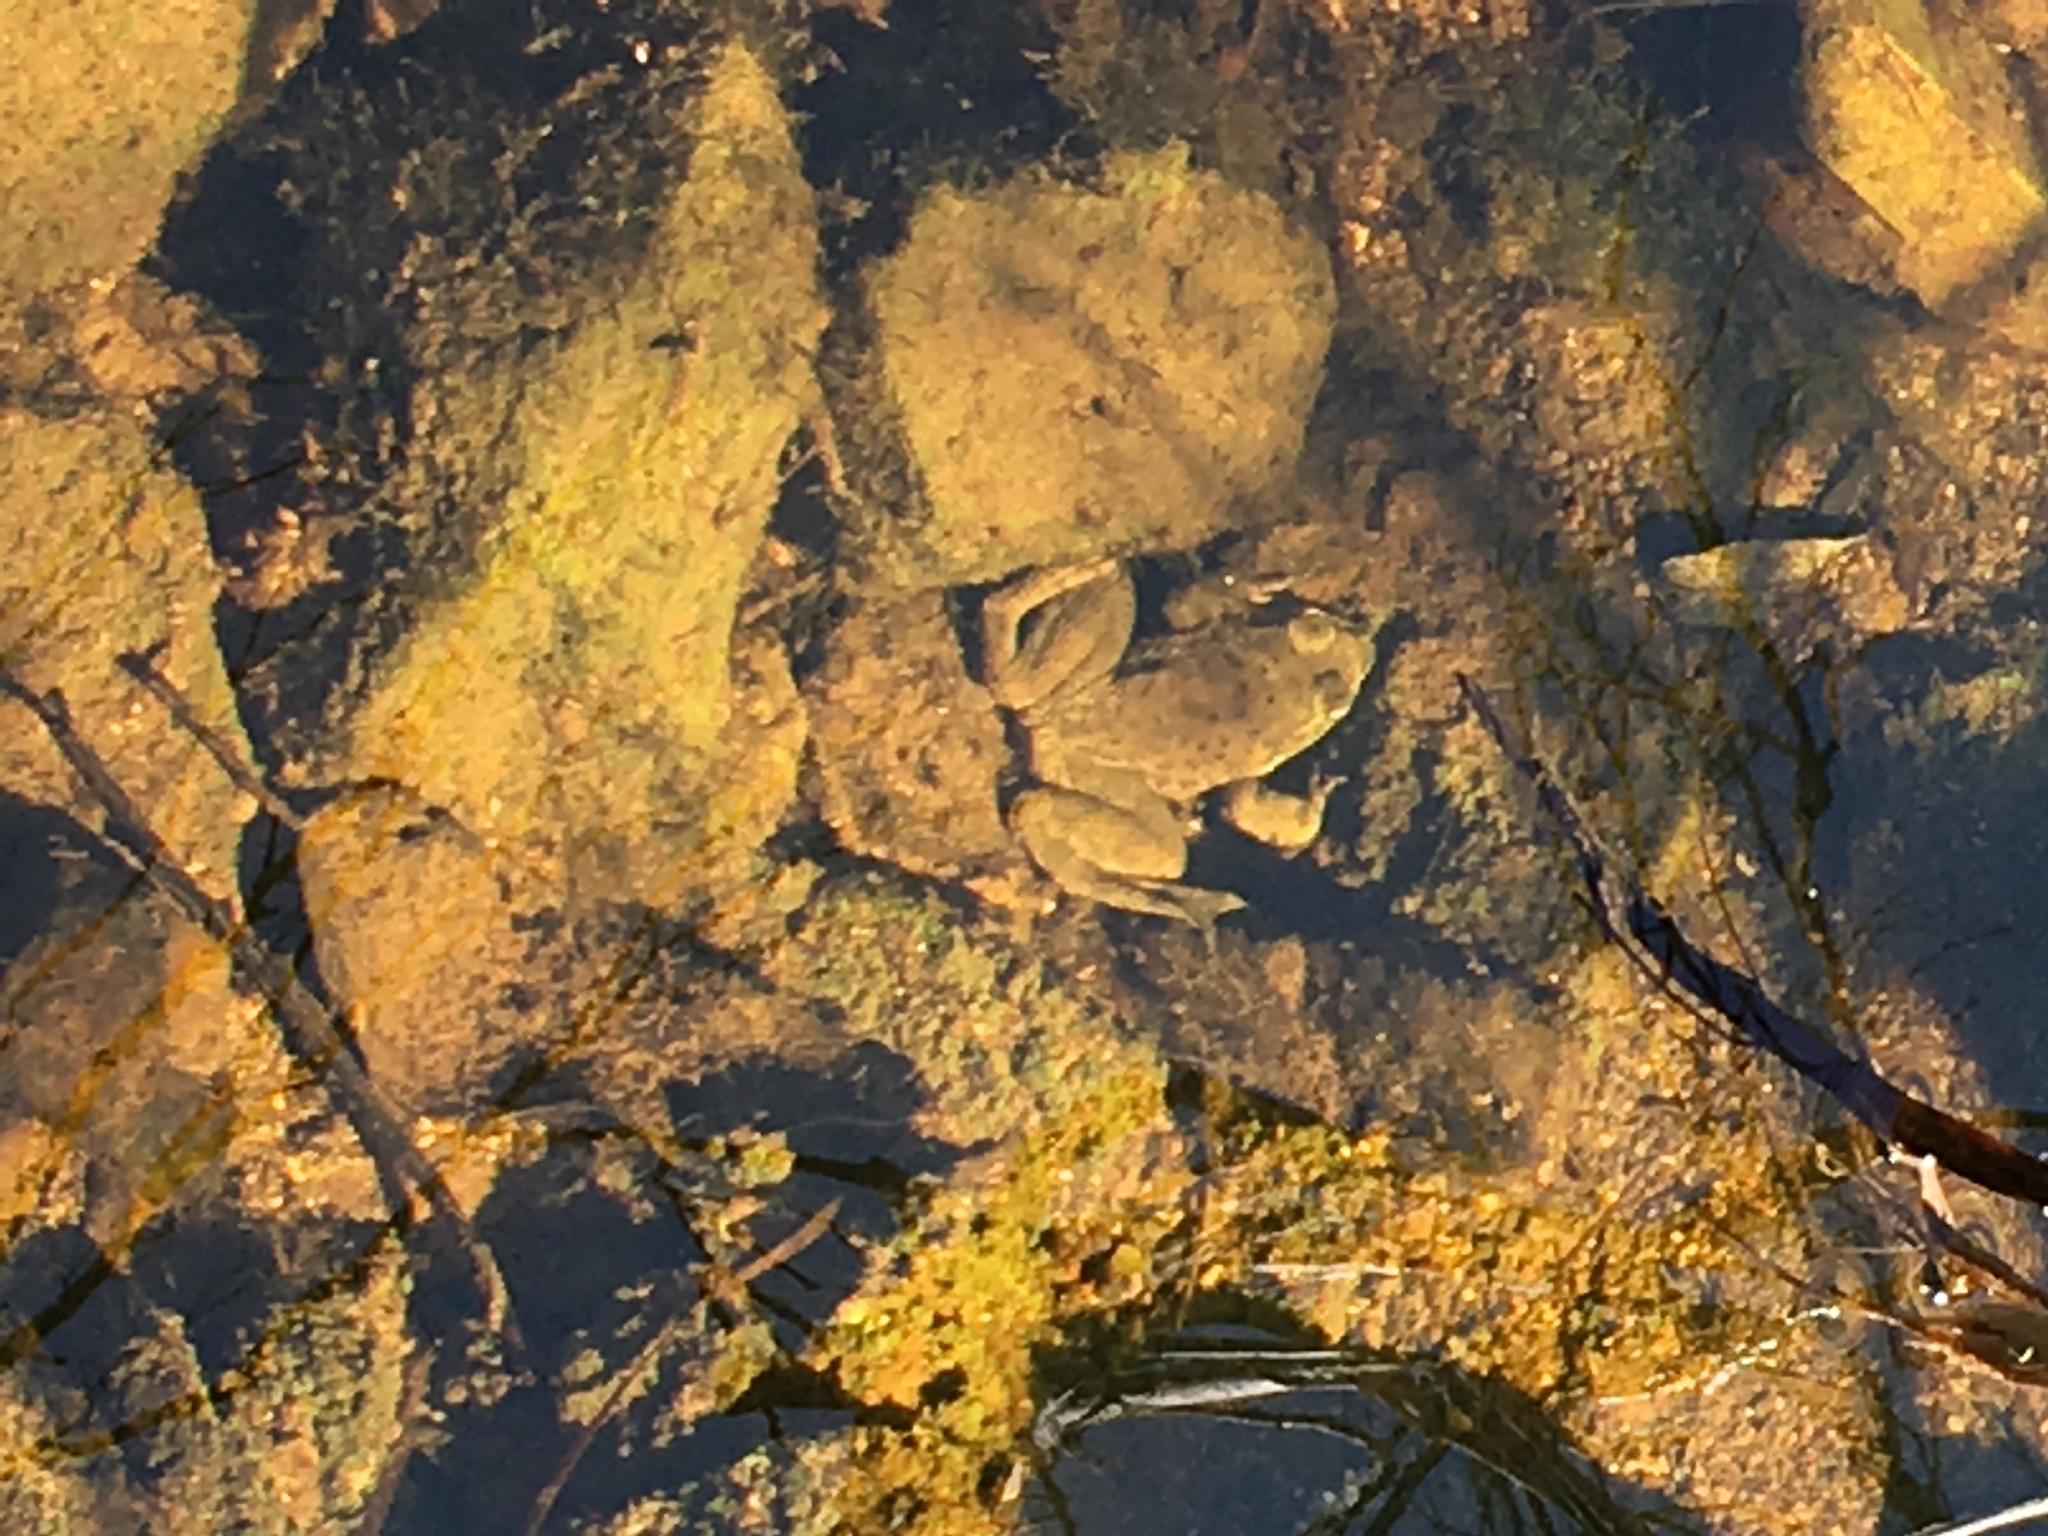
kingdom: Animalia
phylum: Chordata
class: Amphibia
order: Anura
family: Ranidae
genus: Lithobates
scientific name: Lithobates catesbeianus
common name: American bullfrog
